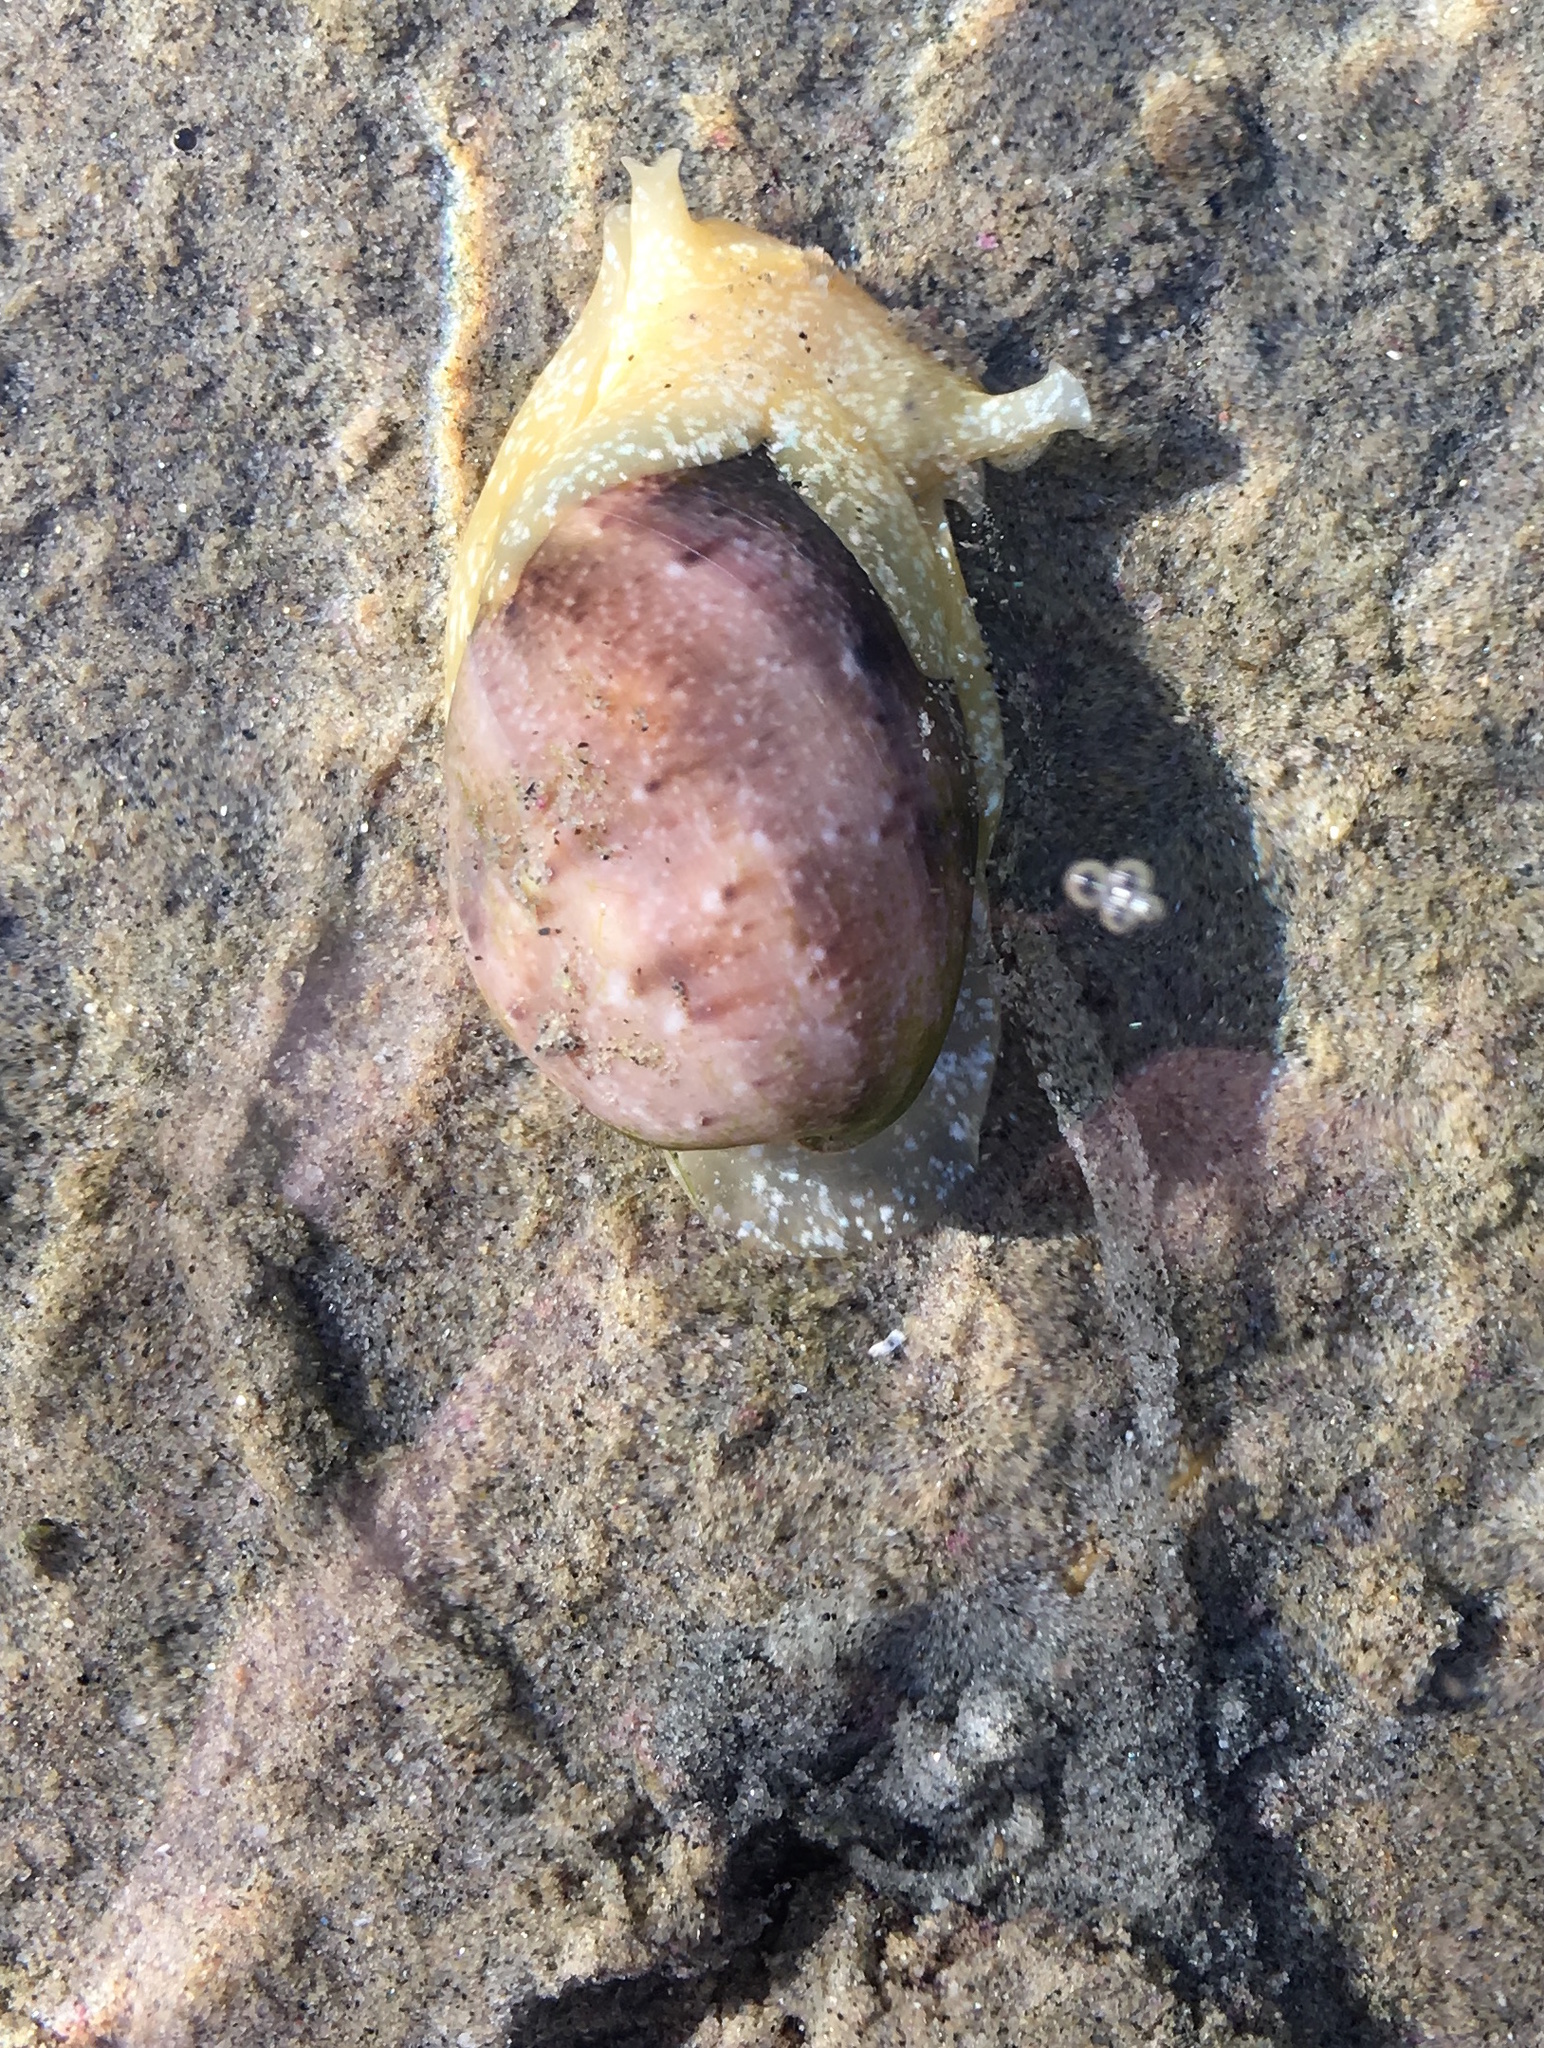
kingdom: Animalia
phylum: Mollusca
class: Gastropoda
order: Cephalaspidea
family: Bullidae
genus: Bulla
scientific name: Bulla gouldiana
